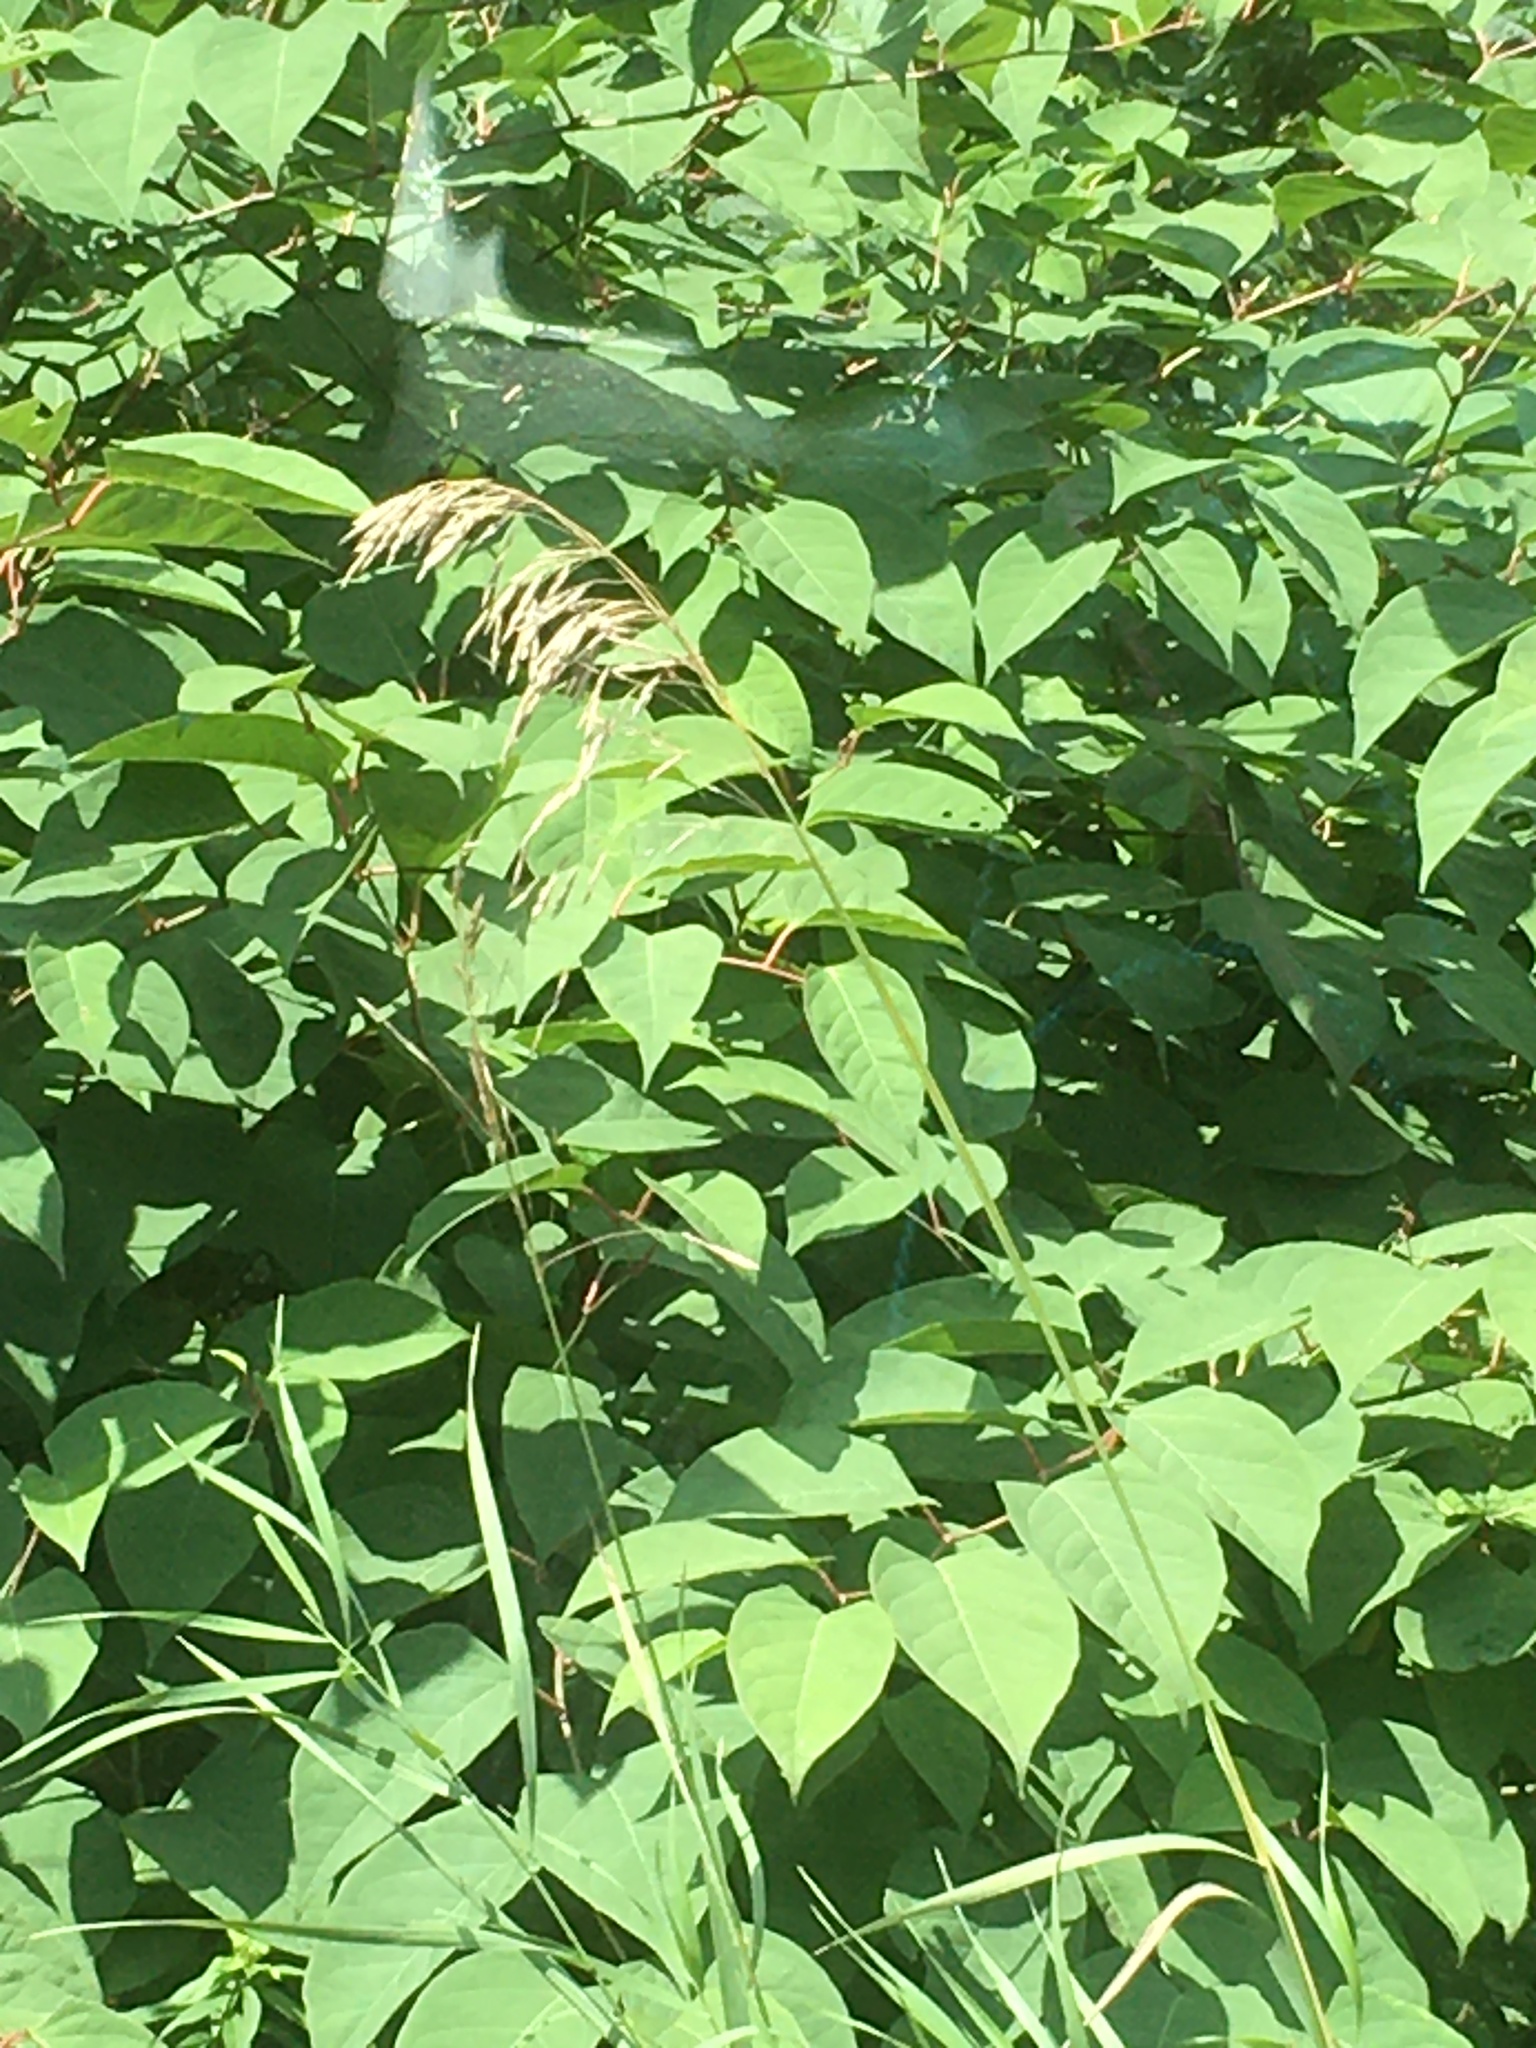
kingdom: Plantae
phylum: Tracheophyta
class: Liliopsida
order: Poales
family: Poaceae
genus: Bromus
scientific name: Bromus inermis
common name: Smooth brome
